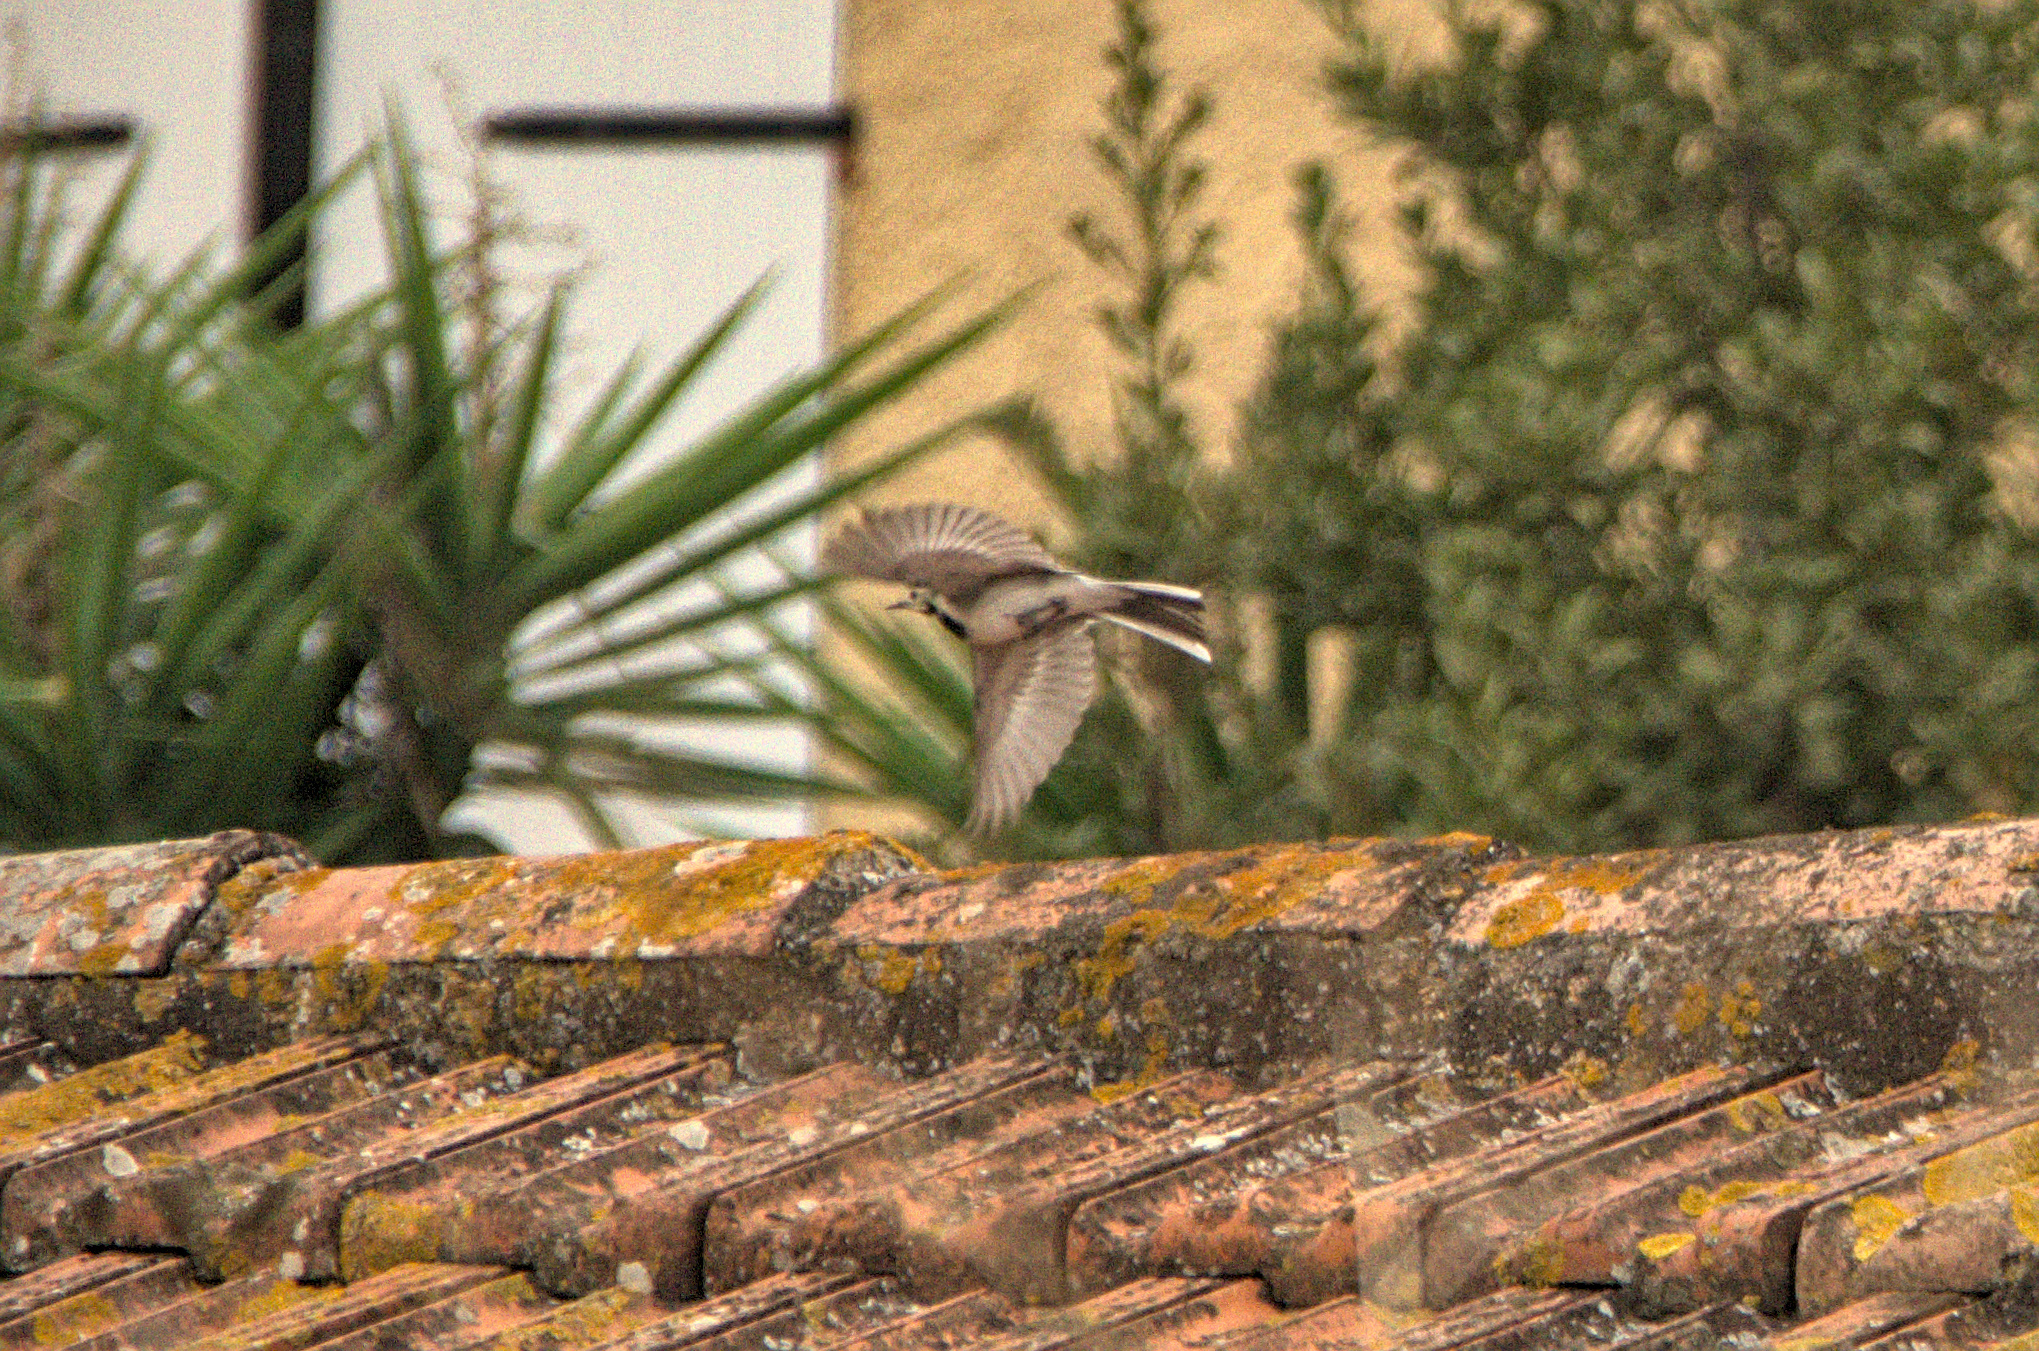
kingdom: Animalia
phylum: Chordata
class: Aves
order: Passeriformes
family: Motacillidae
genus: Motacilla
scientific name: Motacilla alba
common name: White wagtail
